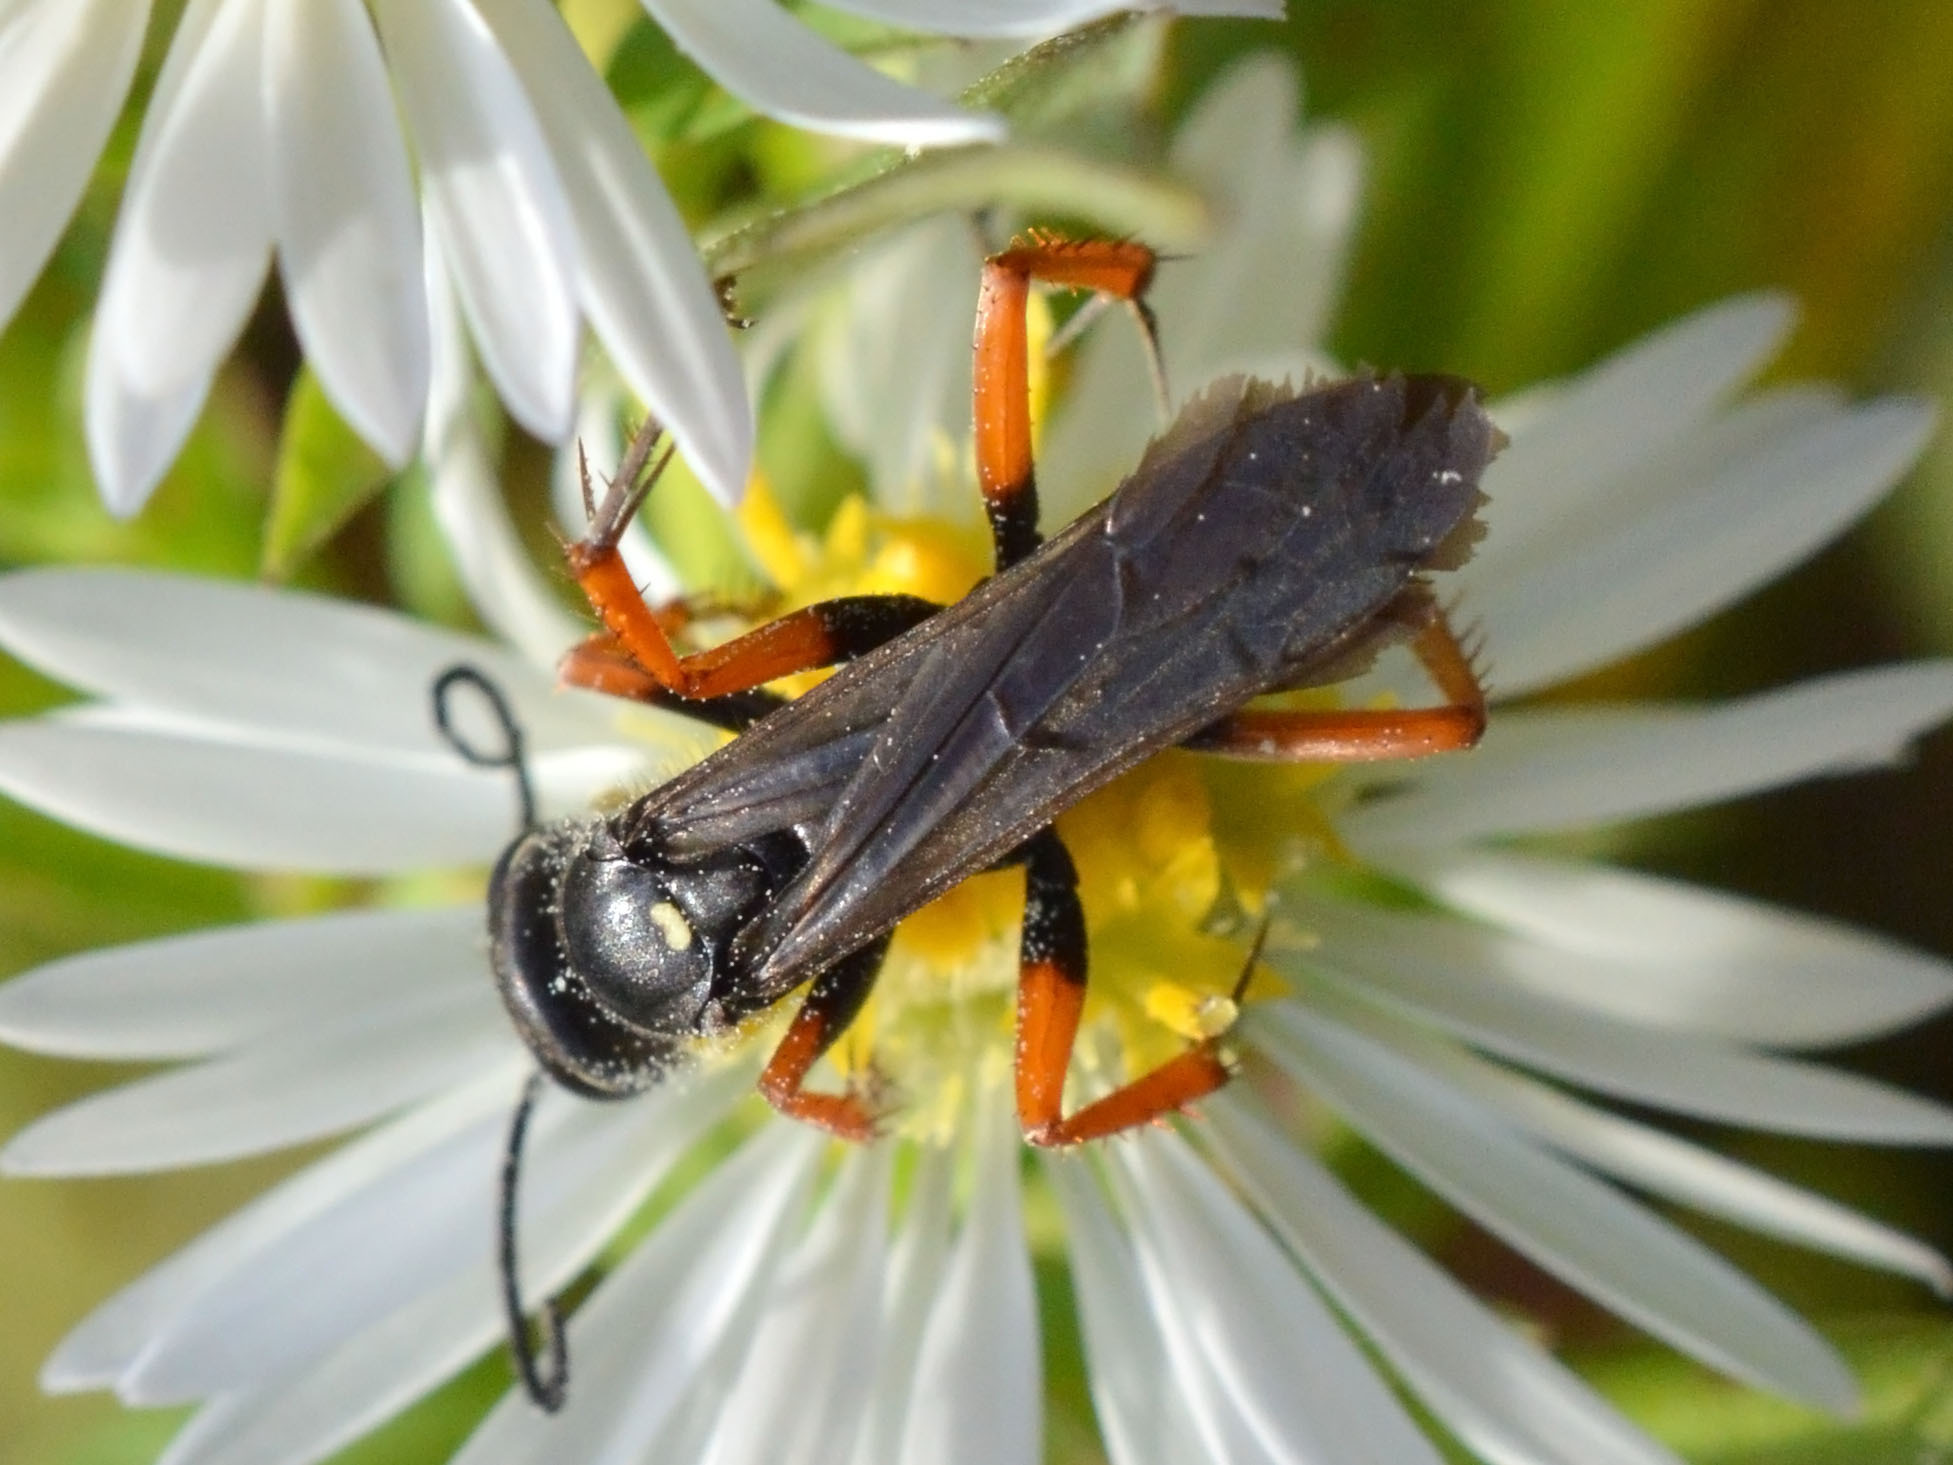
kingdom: Animalia
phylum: Arthropoda
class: Insecta
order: Hymenoptera
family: Pompilidae
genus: Episyron
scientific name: Episyron albonotatum
